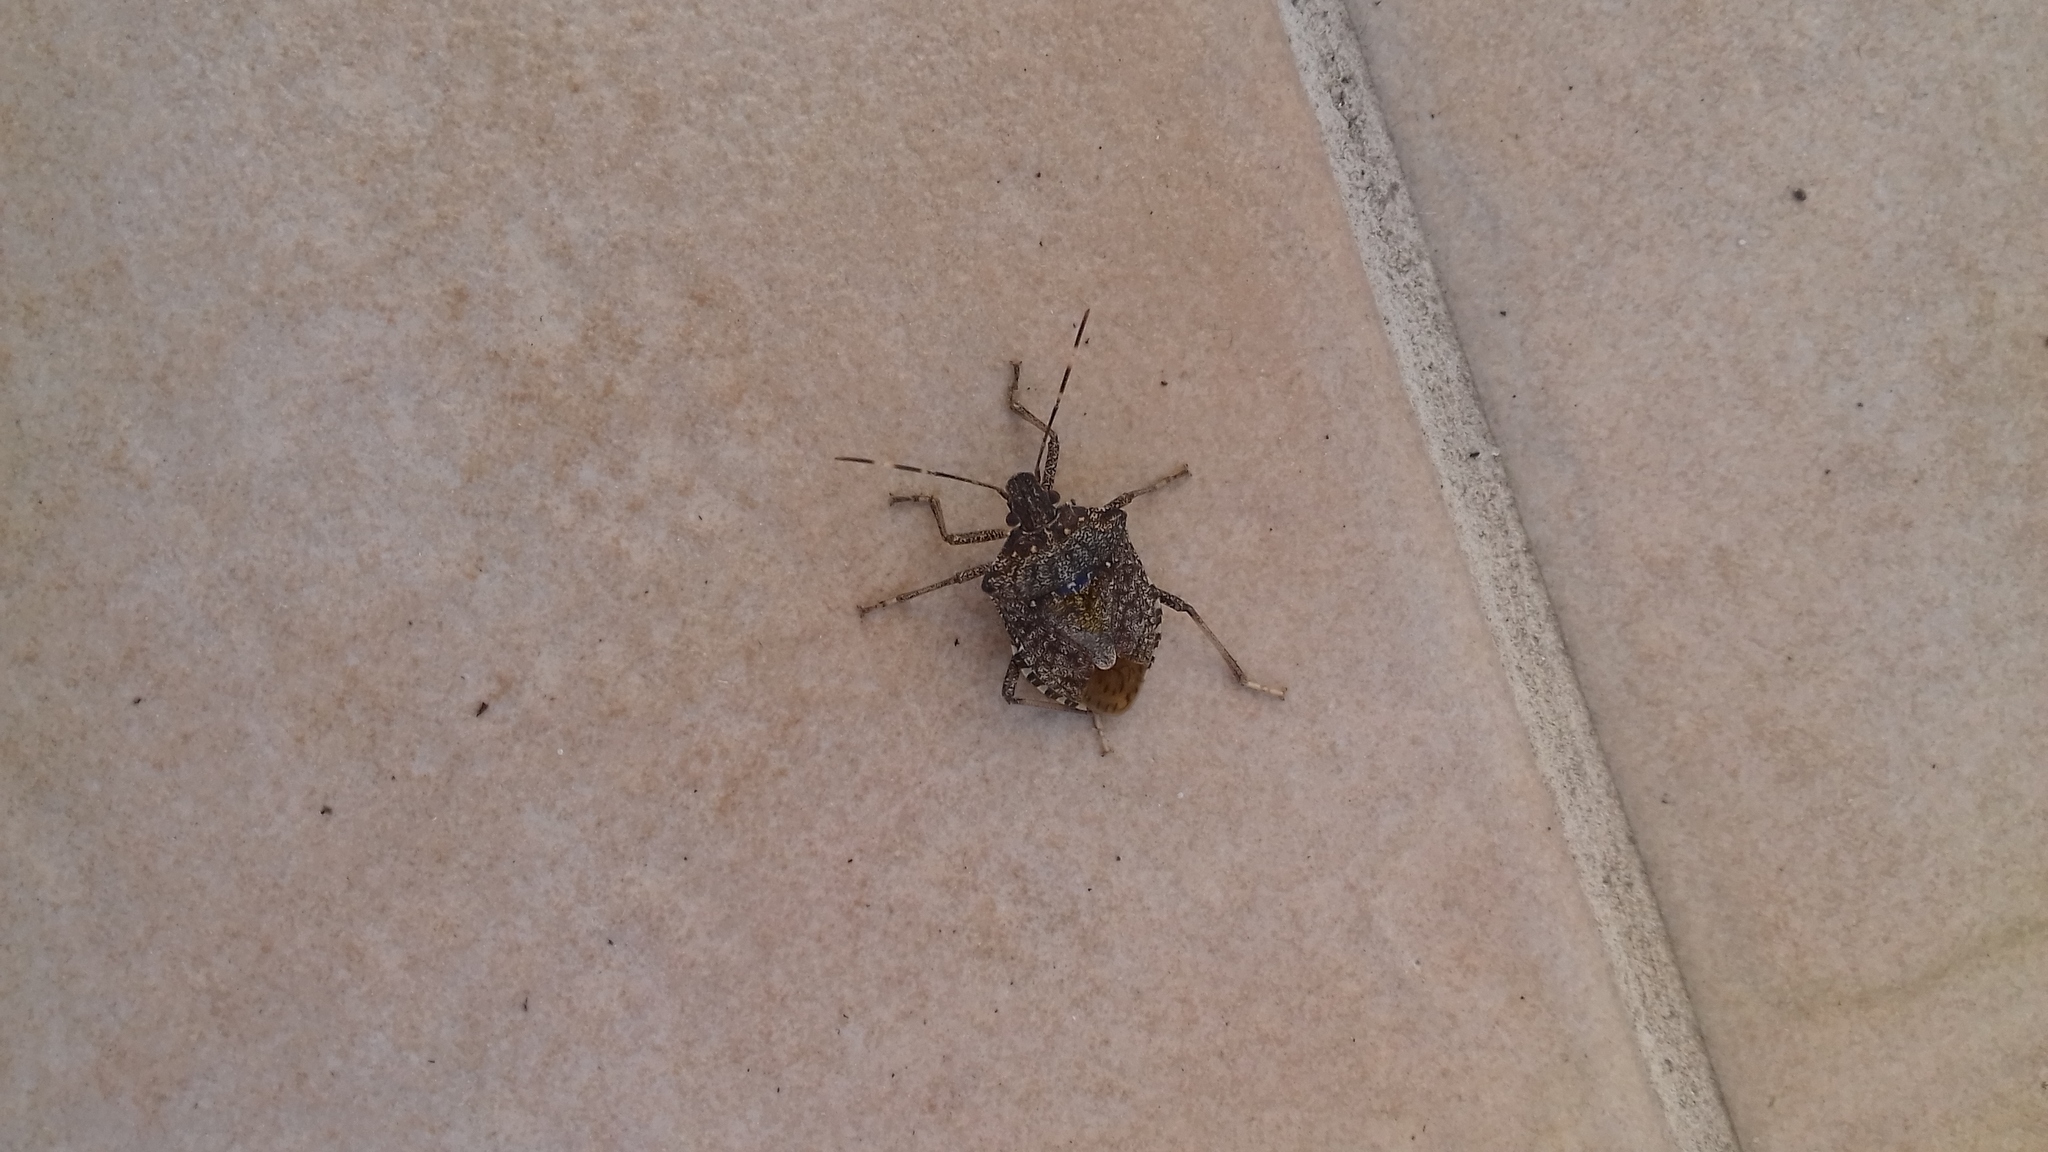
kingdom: Animalia
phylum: Arthropoda
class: Insecta
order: Hemiptera
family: Pentatomidae
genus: Halyomorpha
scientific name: Halyomorpha halys
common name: Brown marmorated stink bug
